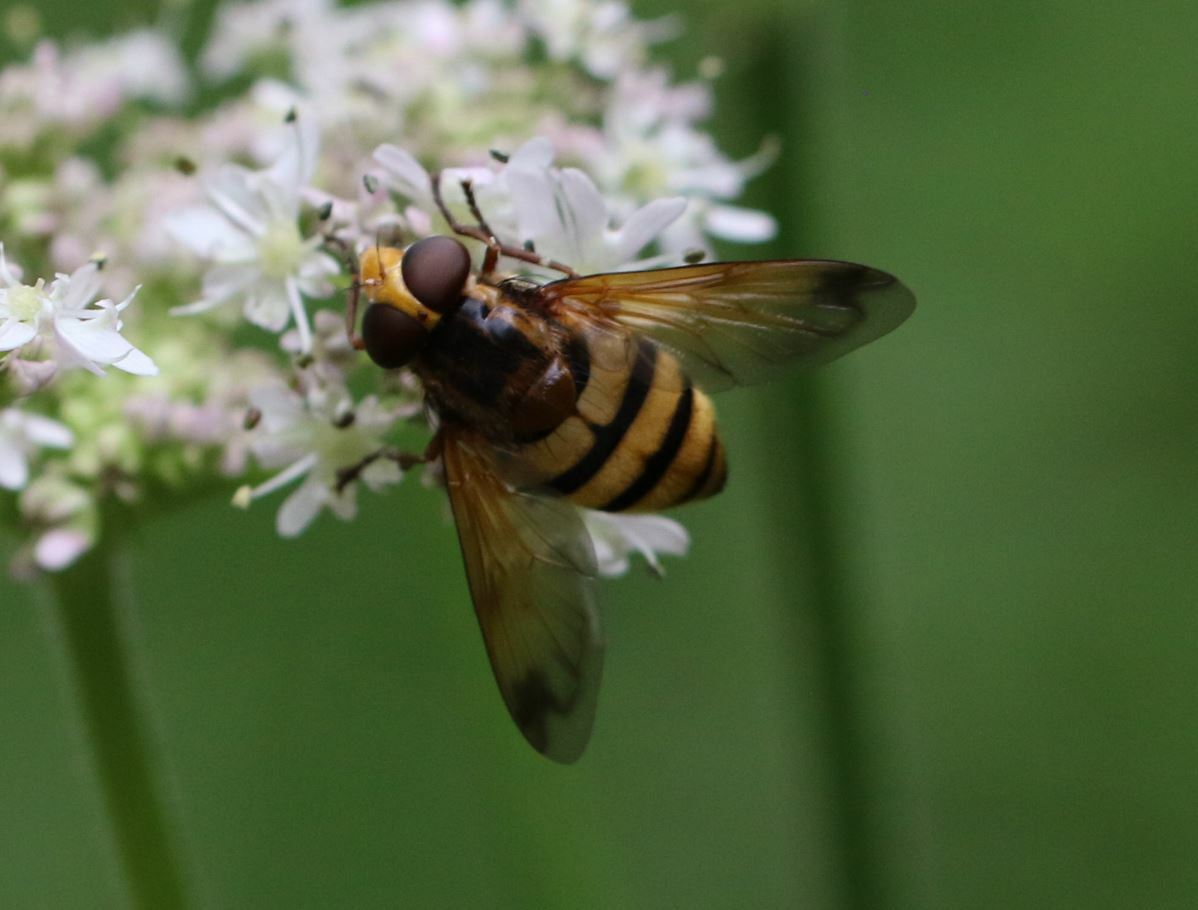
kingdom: Animalia
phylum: Arthropoda
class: Insecta
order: Diptera
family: Syrphidae
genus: Volucella
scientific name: Volucella inanis
